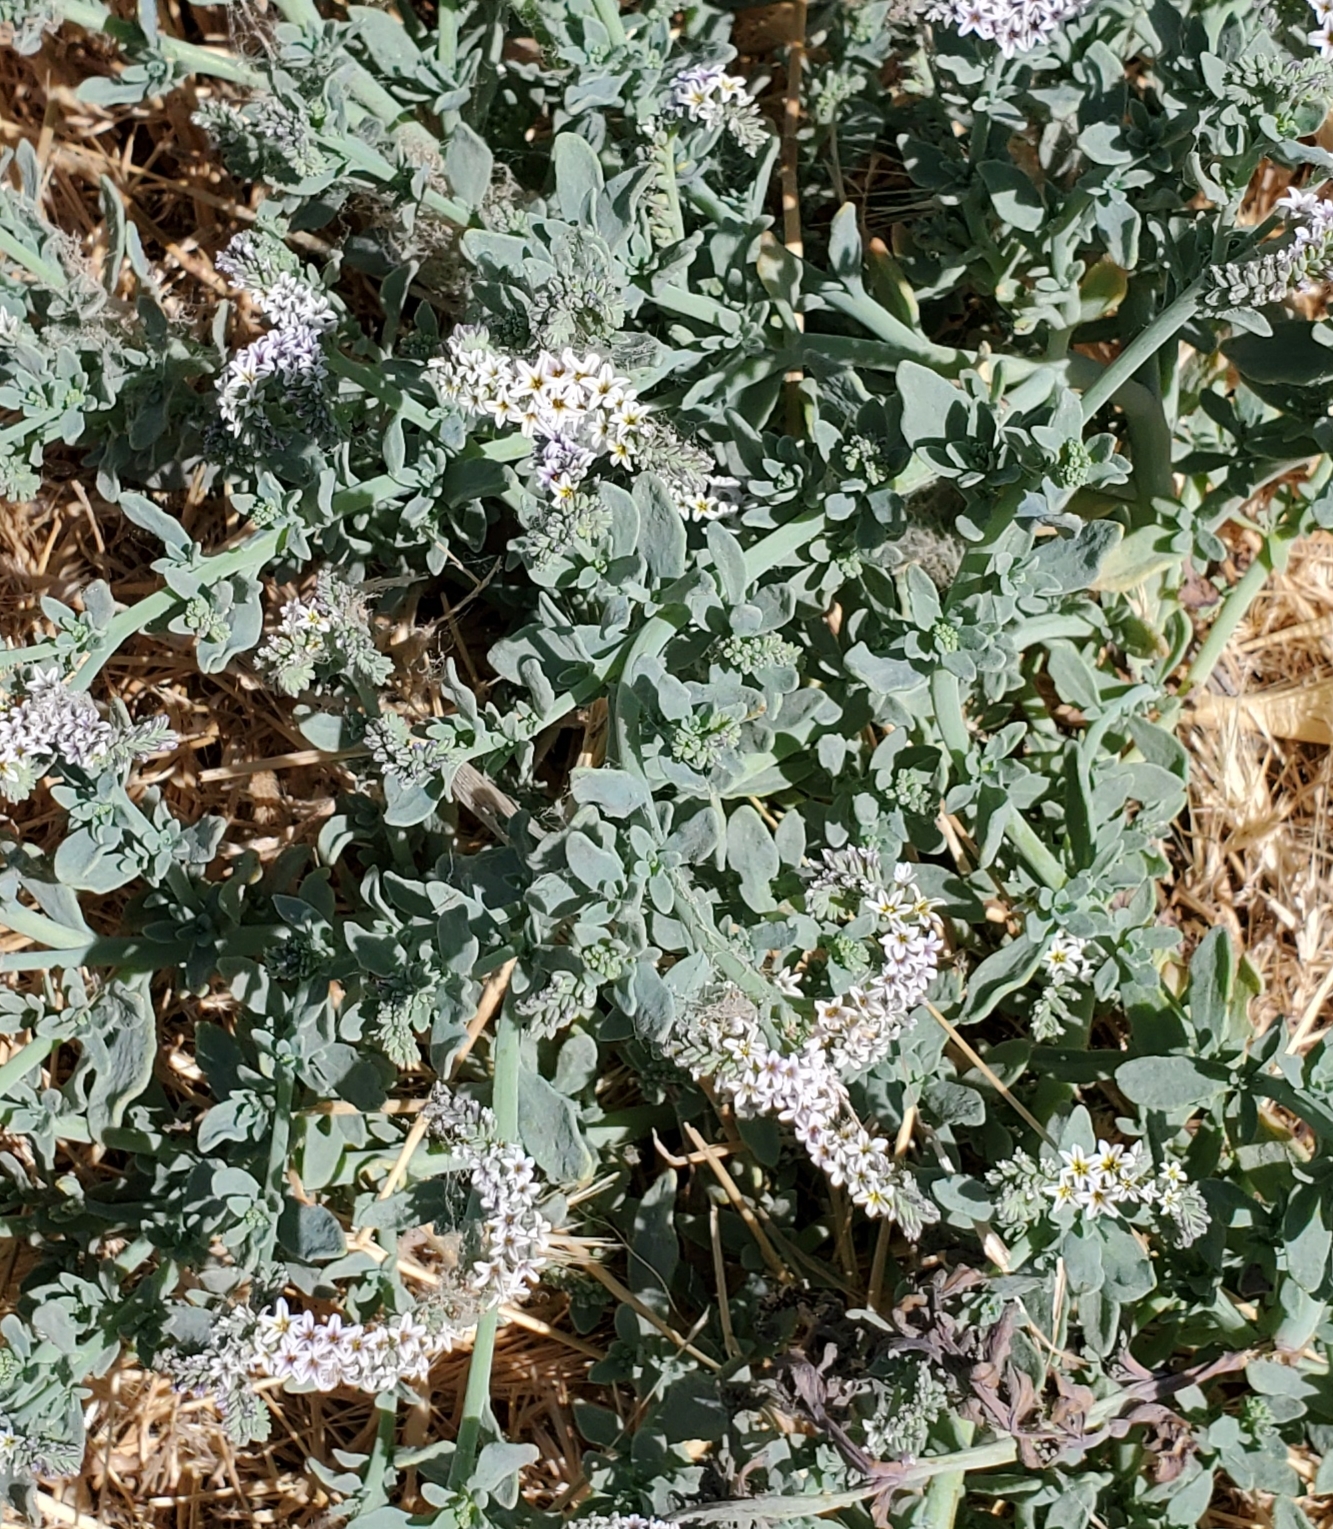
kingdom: Plantae
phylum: Tracheophyta
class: Magnoliopsida
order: Boraginales
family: Heliotropiaceae
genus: Heliotropium
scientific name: Heliotropium curassavicum
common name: Seaside heliotrope
